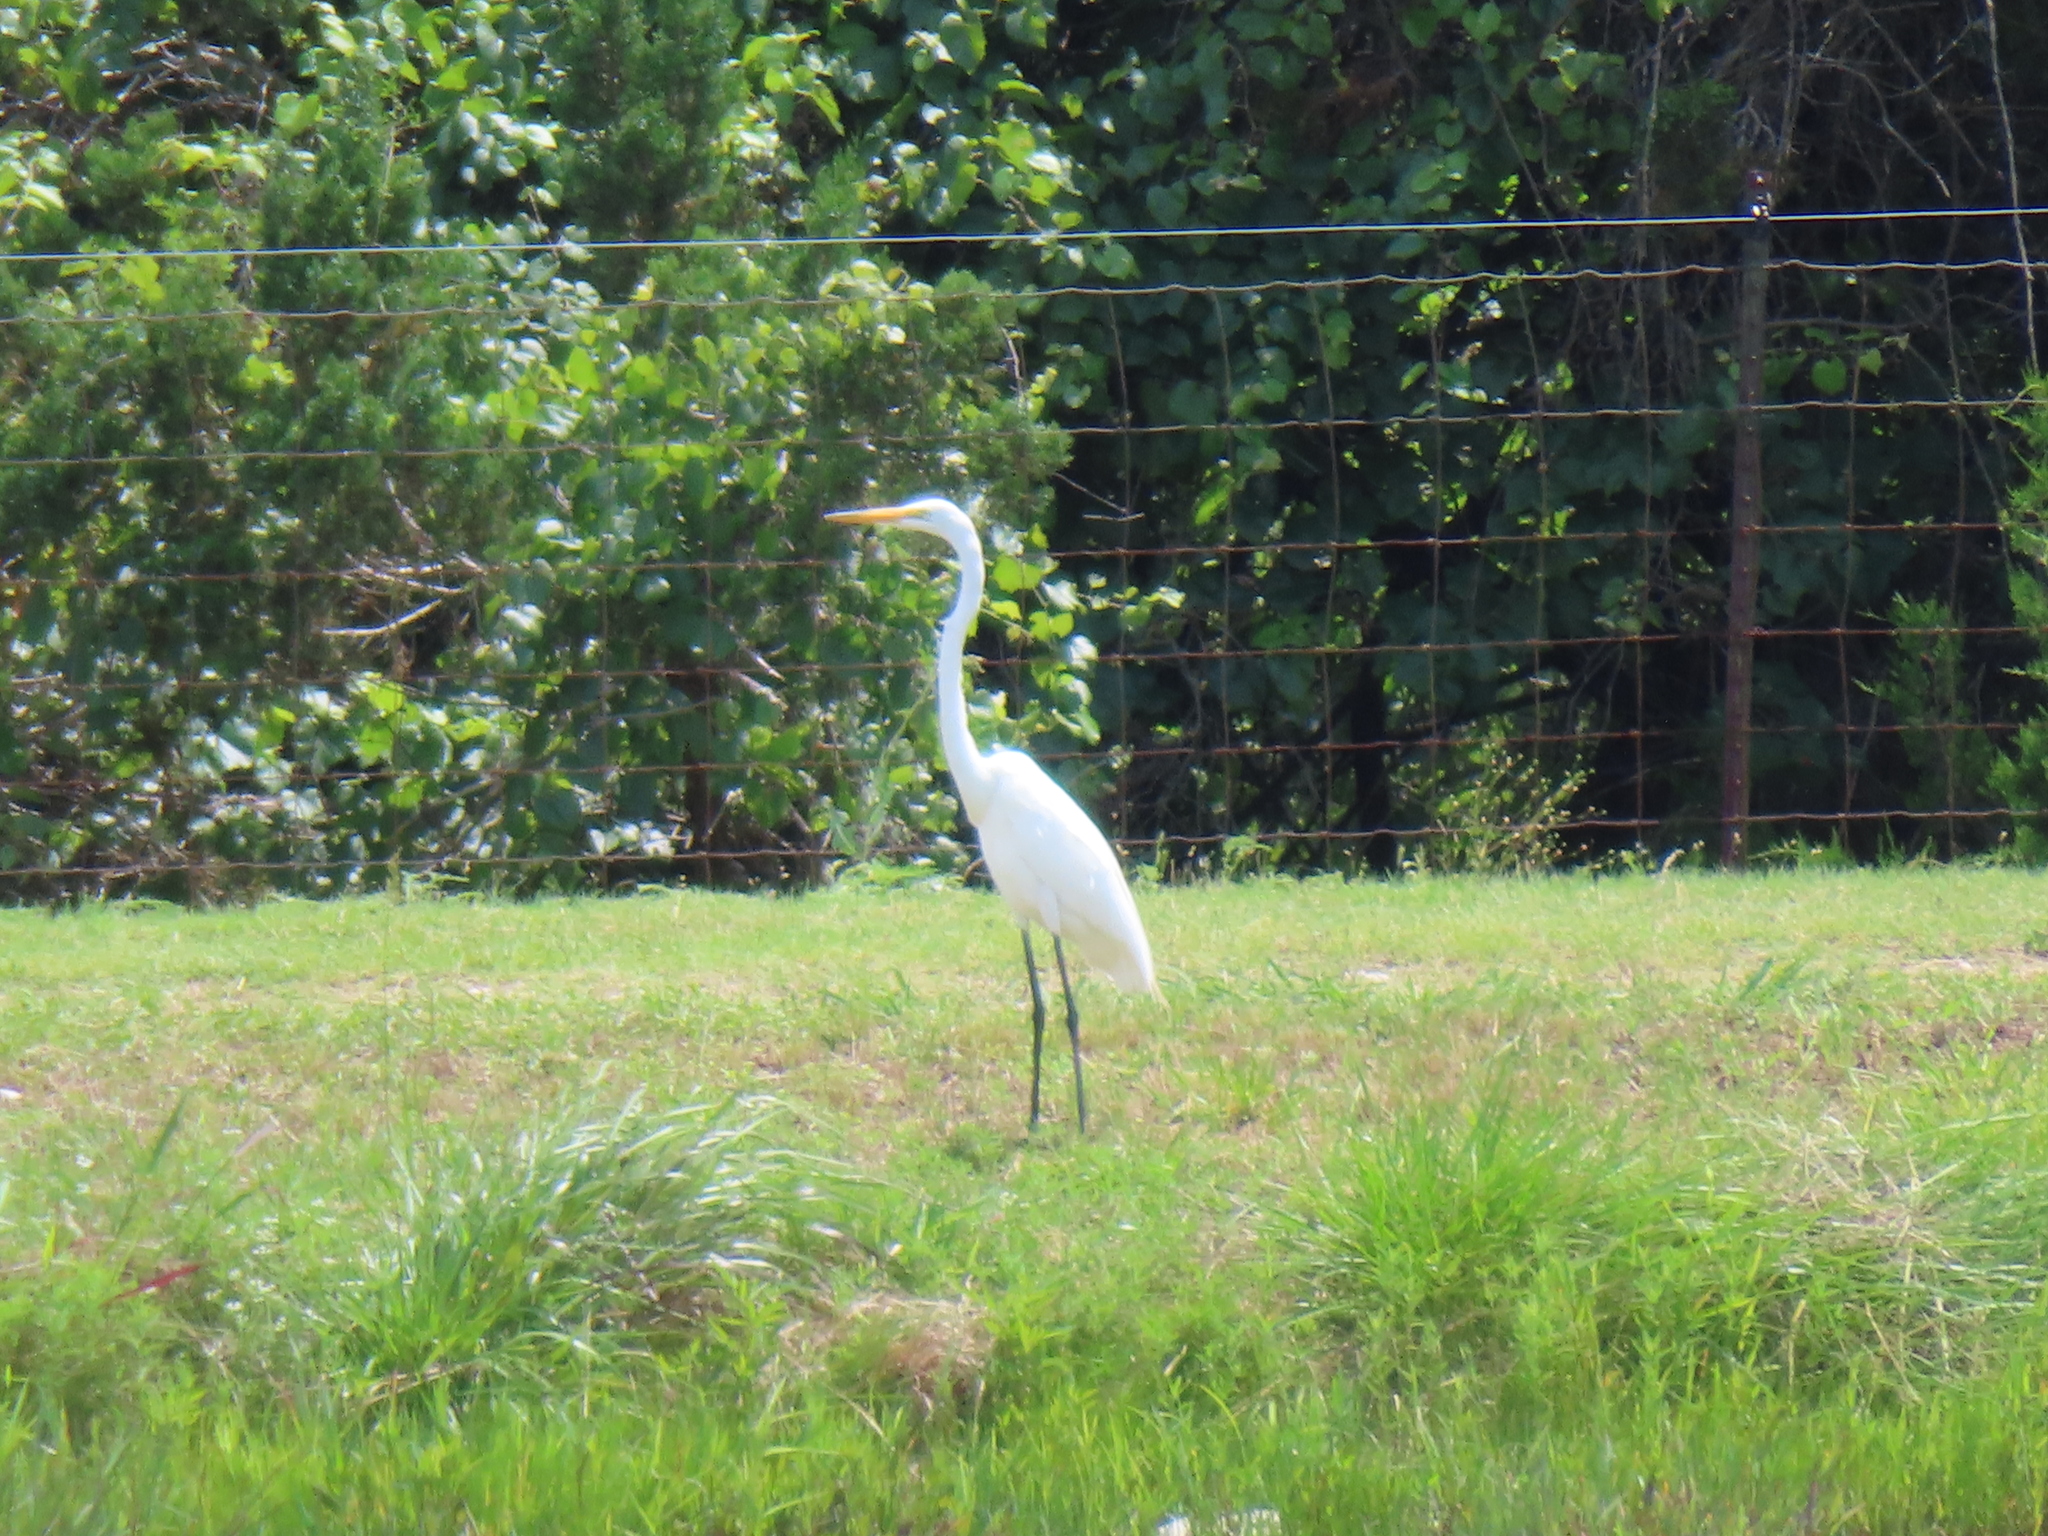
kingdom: Animalia
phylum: Chordata
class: Aves
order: Pelecaniformes
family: Ardeidae
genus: Ardea
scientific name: Ardea alba
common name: Great egret
